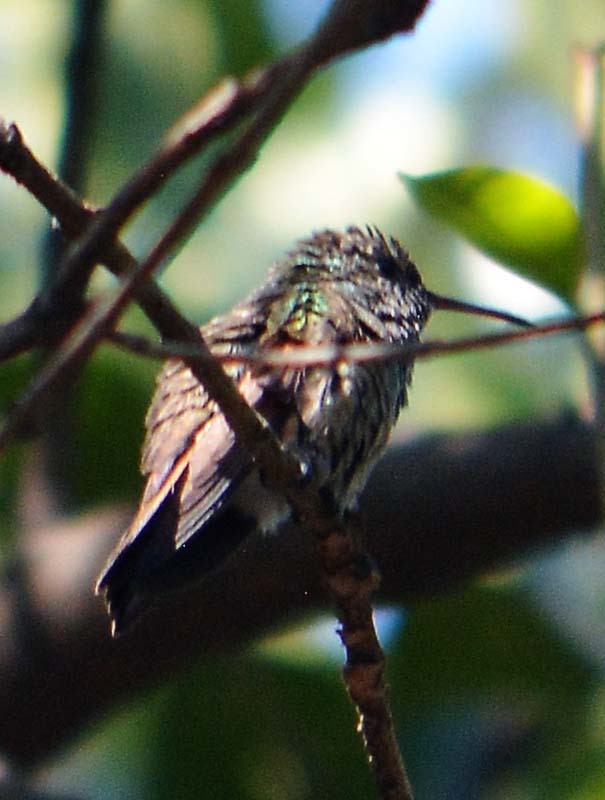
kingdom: Animalia
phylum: Chordata
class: Aves
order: Apodiformes
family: Trochilidae
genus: Saucerottia
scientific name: Saucerottia beryllina
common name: Berylline hummingbird
